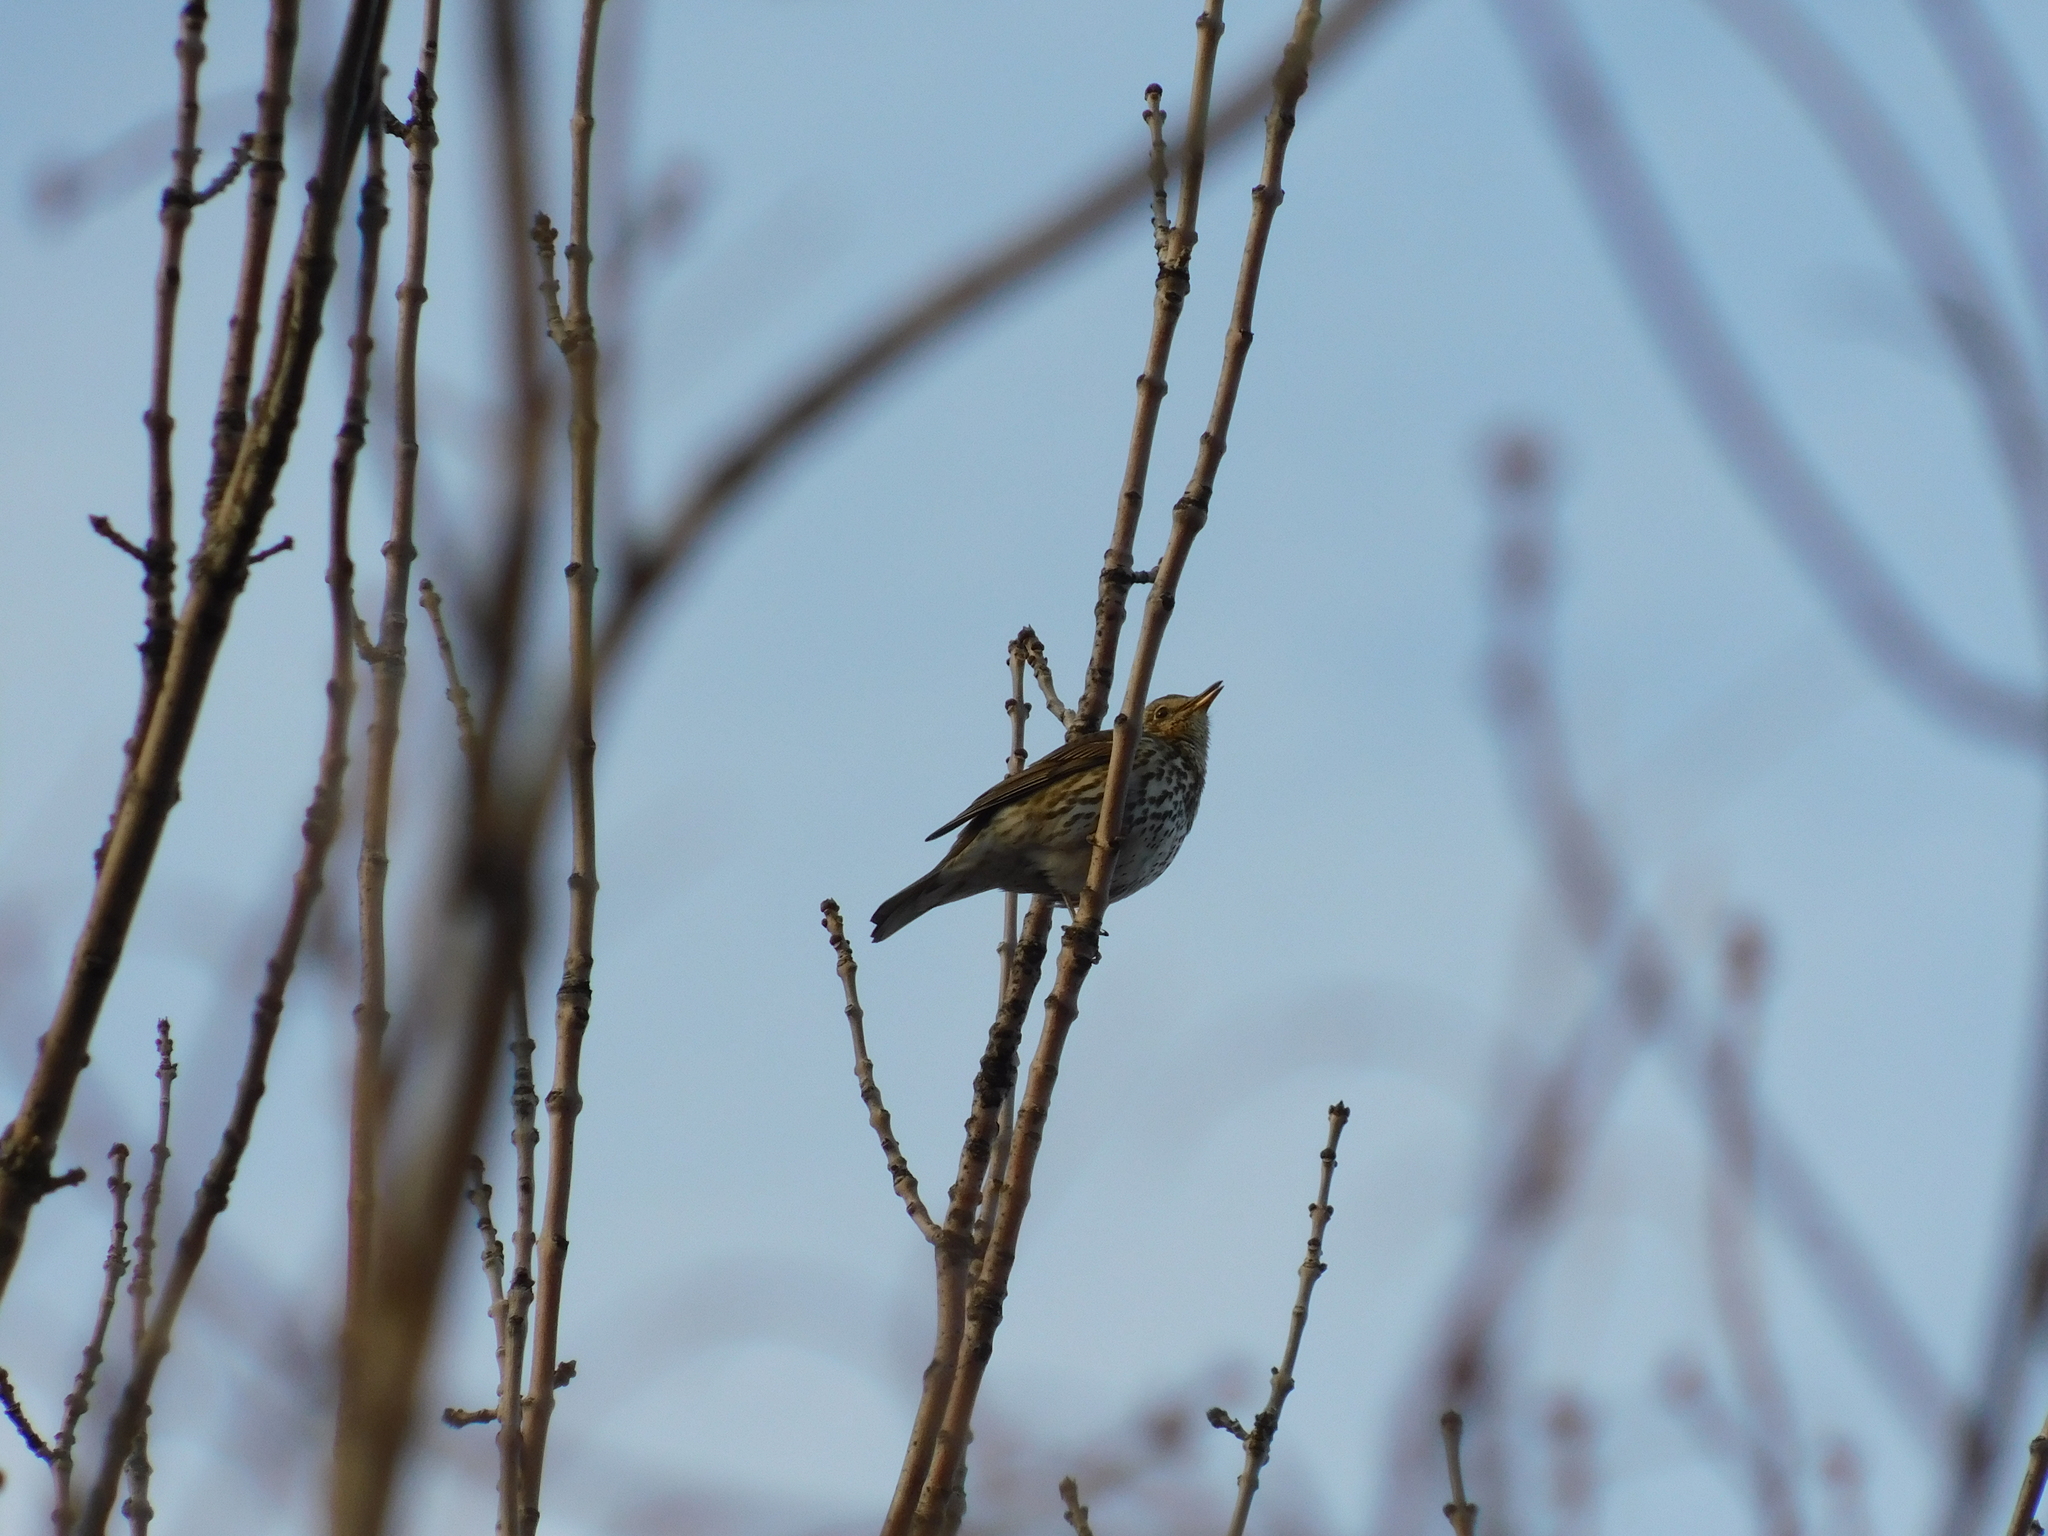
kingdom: Animalia
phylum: Chordata
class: Aves
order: Passeriformes
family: Turdidae
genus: Turdus
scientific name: Turdus philomelos
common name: Song thrush
